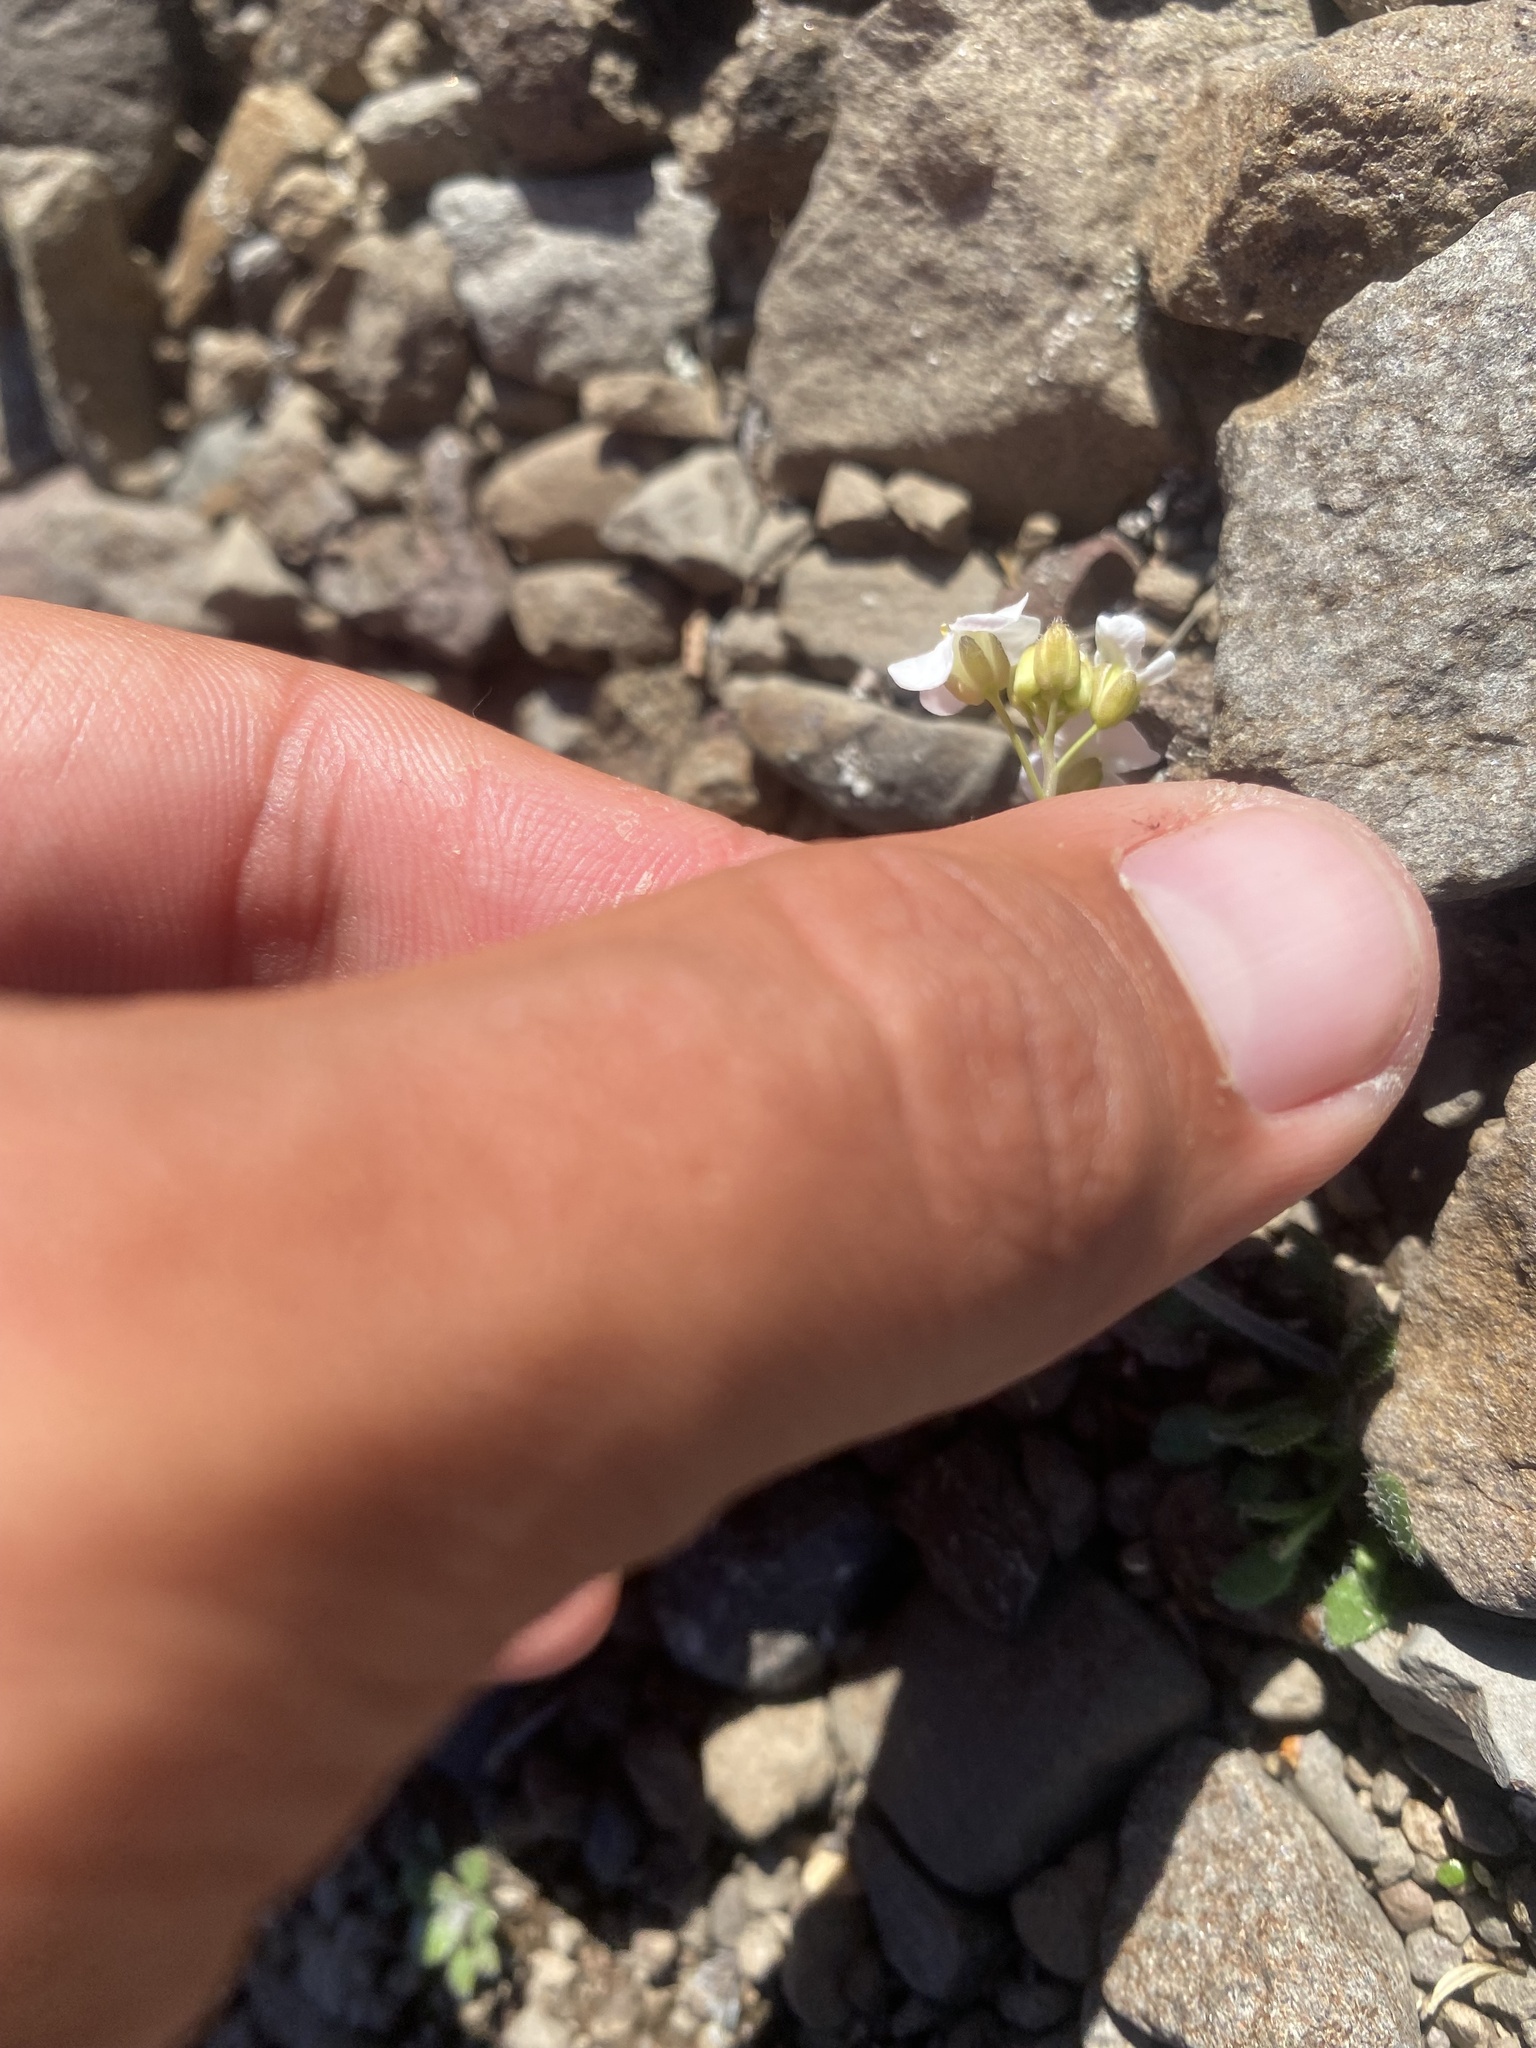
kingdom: Plantae
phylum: Tracheophyta
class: Magnoliopsida
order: Brassicales
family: Brassicaceae
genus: Arabidopsis
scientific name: Arabidopsis lyrata
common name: Lyrate rockcress
